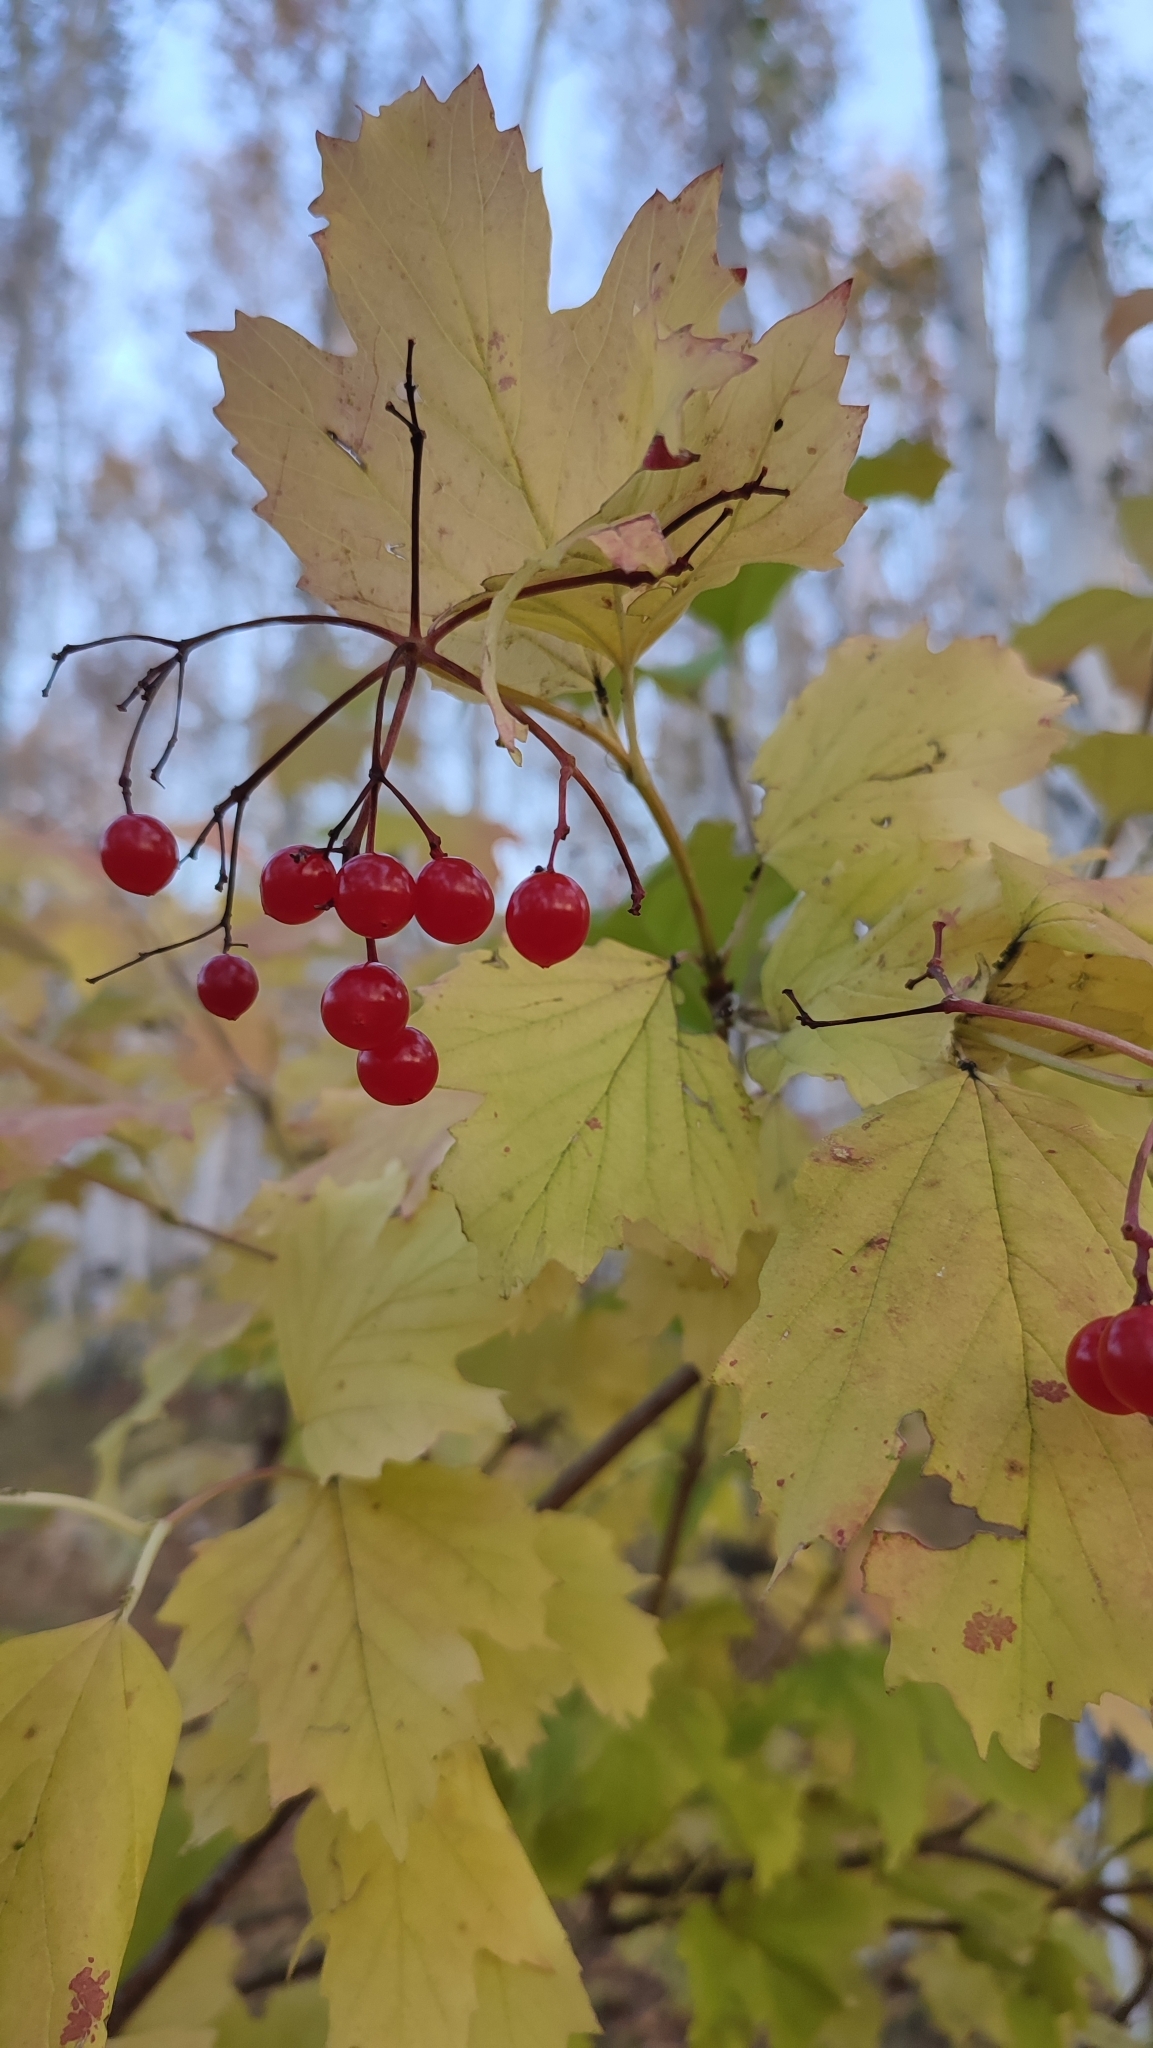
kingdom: Plantae
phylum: Tracheophyta
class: Magnoliopsida
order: Dipsacales
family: Viburnaceae
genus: Viburnum
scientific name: Viburnum opulus
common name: Guelder-rose
